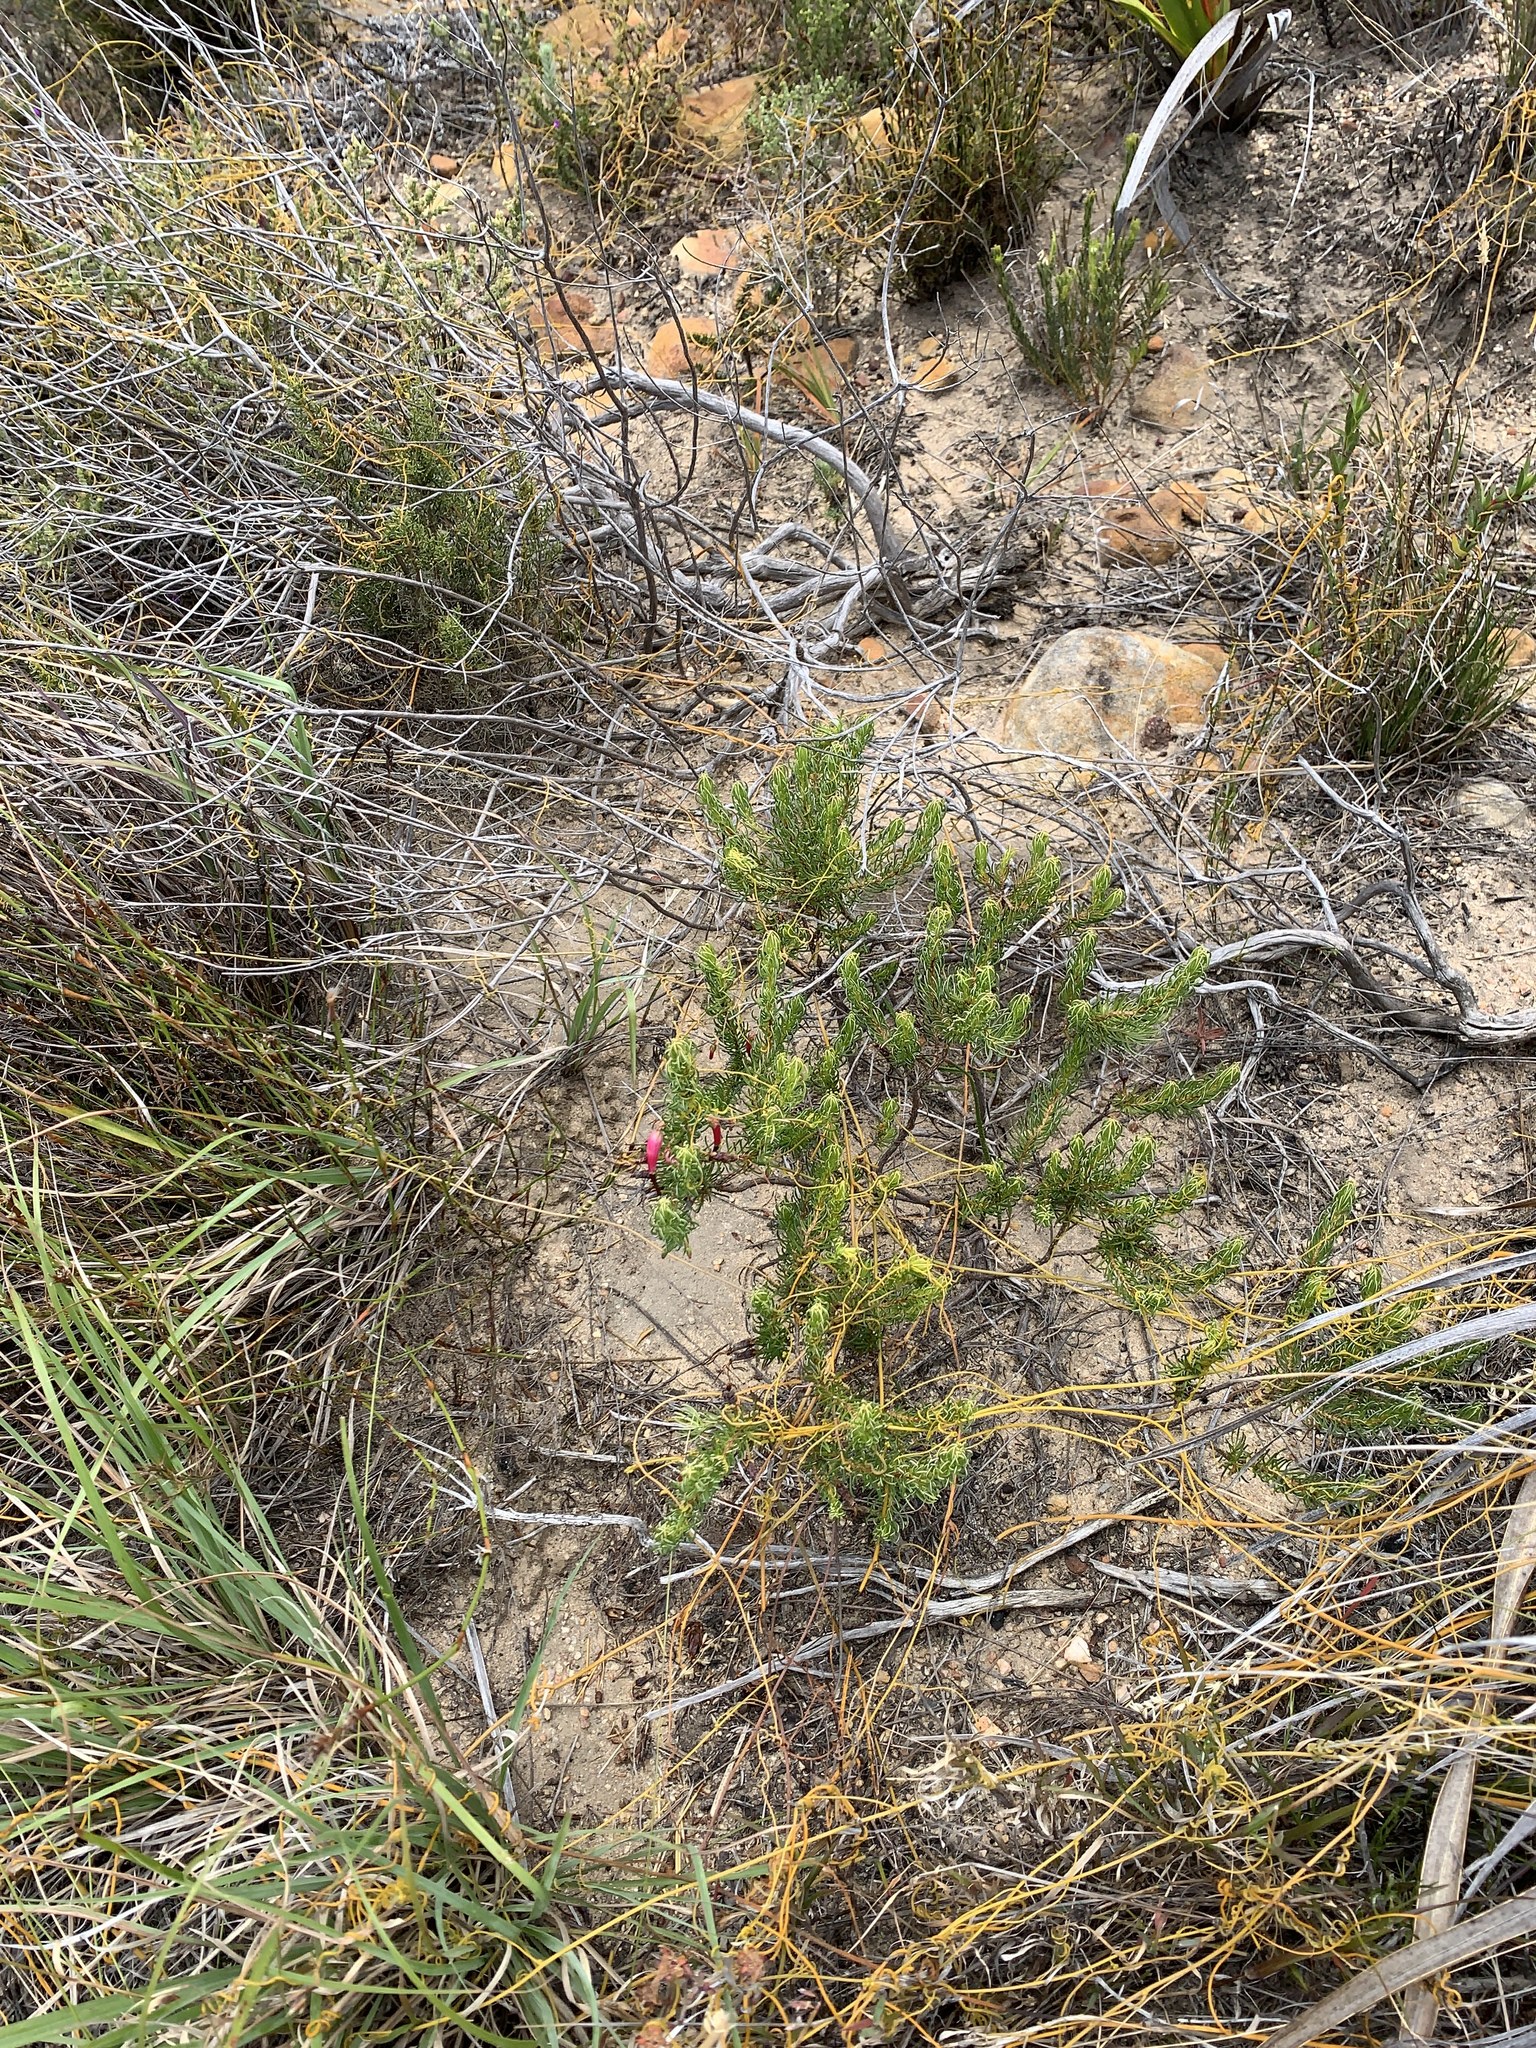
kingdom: Plantae
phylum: Tracheophyta
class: Magnoliopsida
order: Ericales
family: Ericaceae
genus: Erica
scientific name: Erica plukenetii
